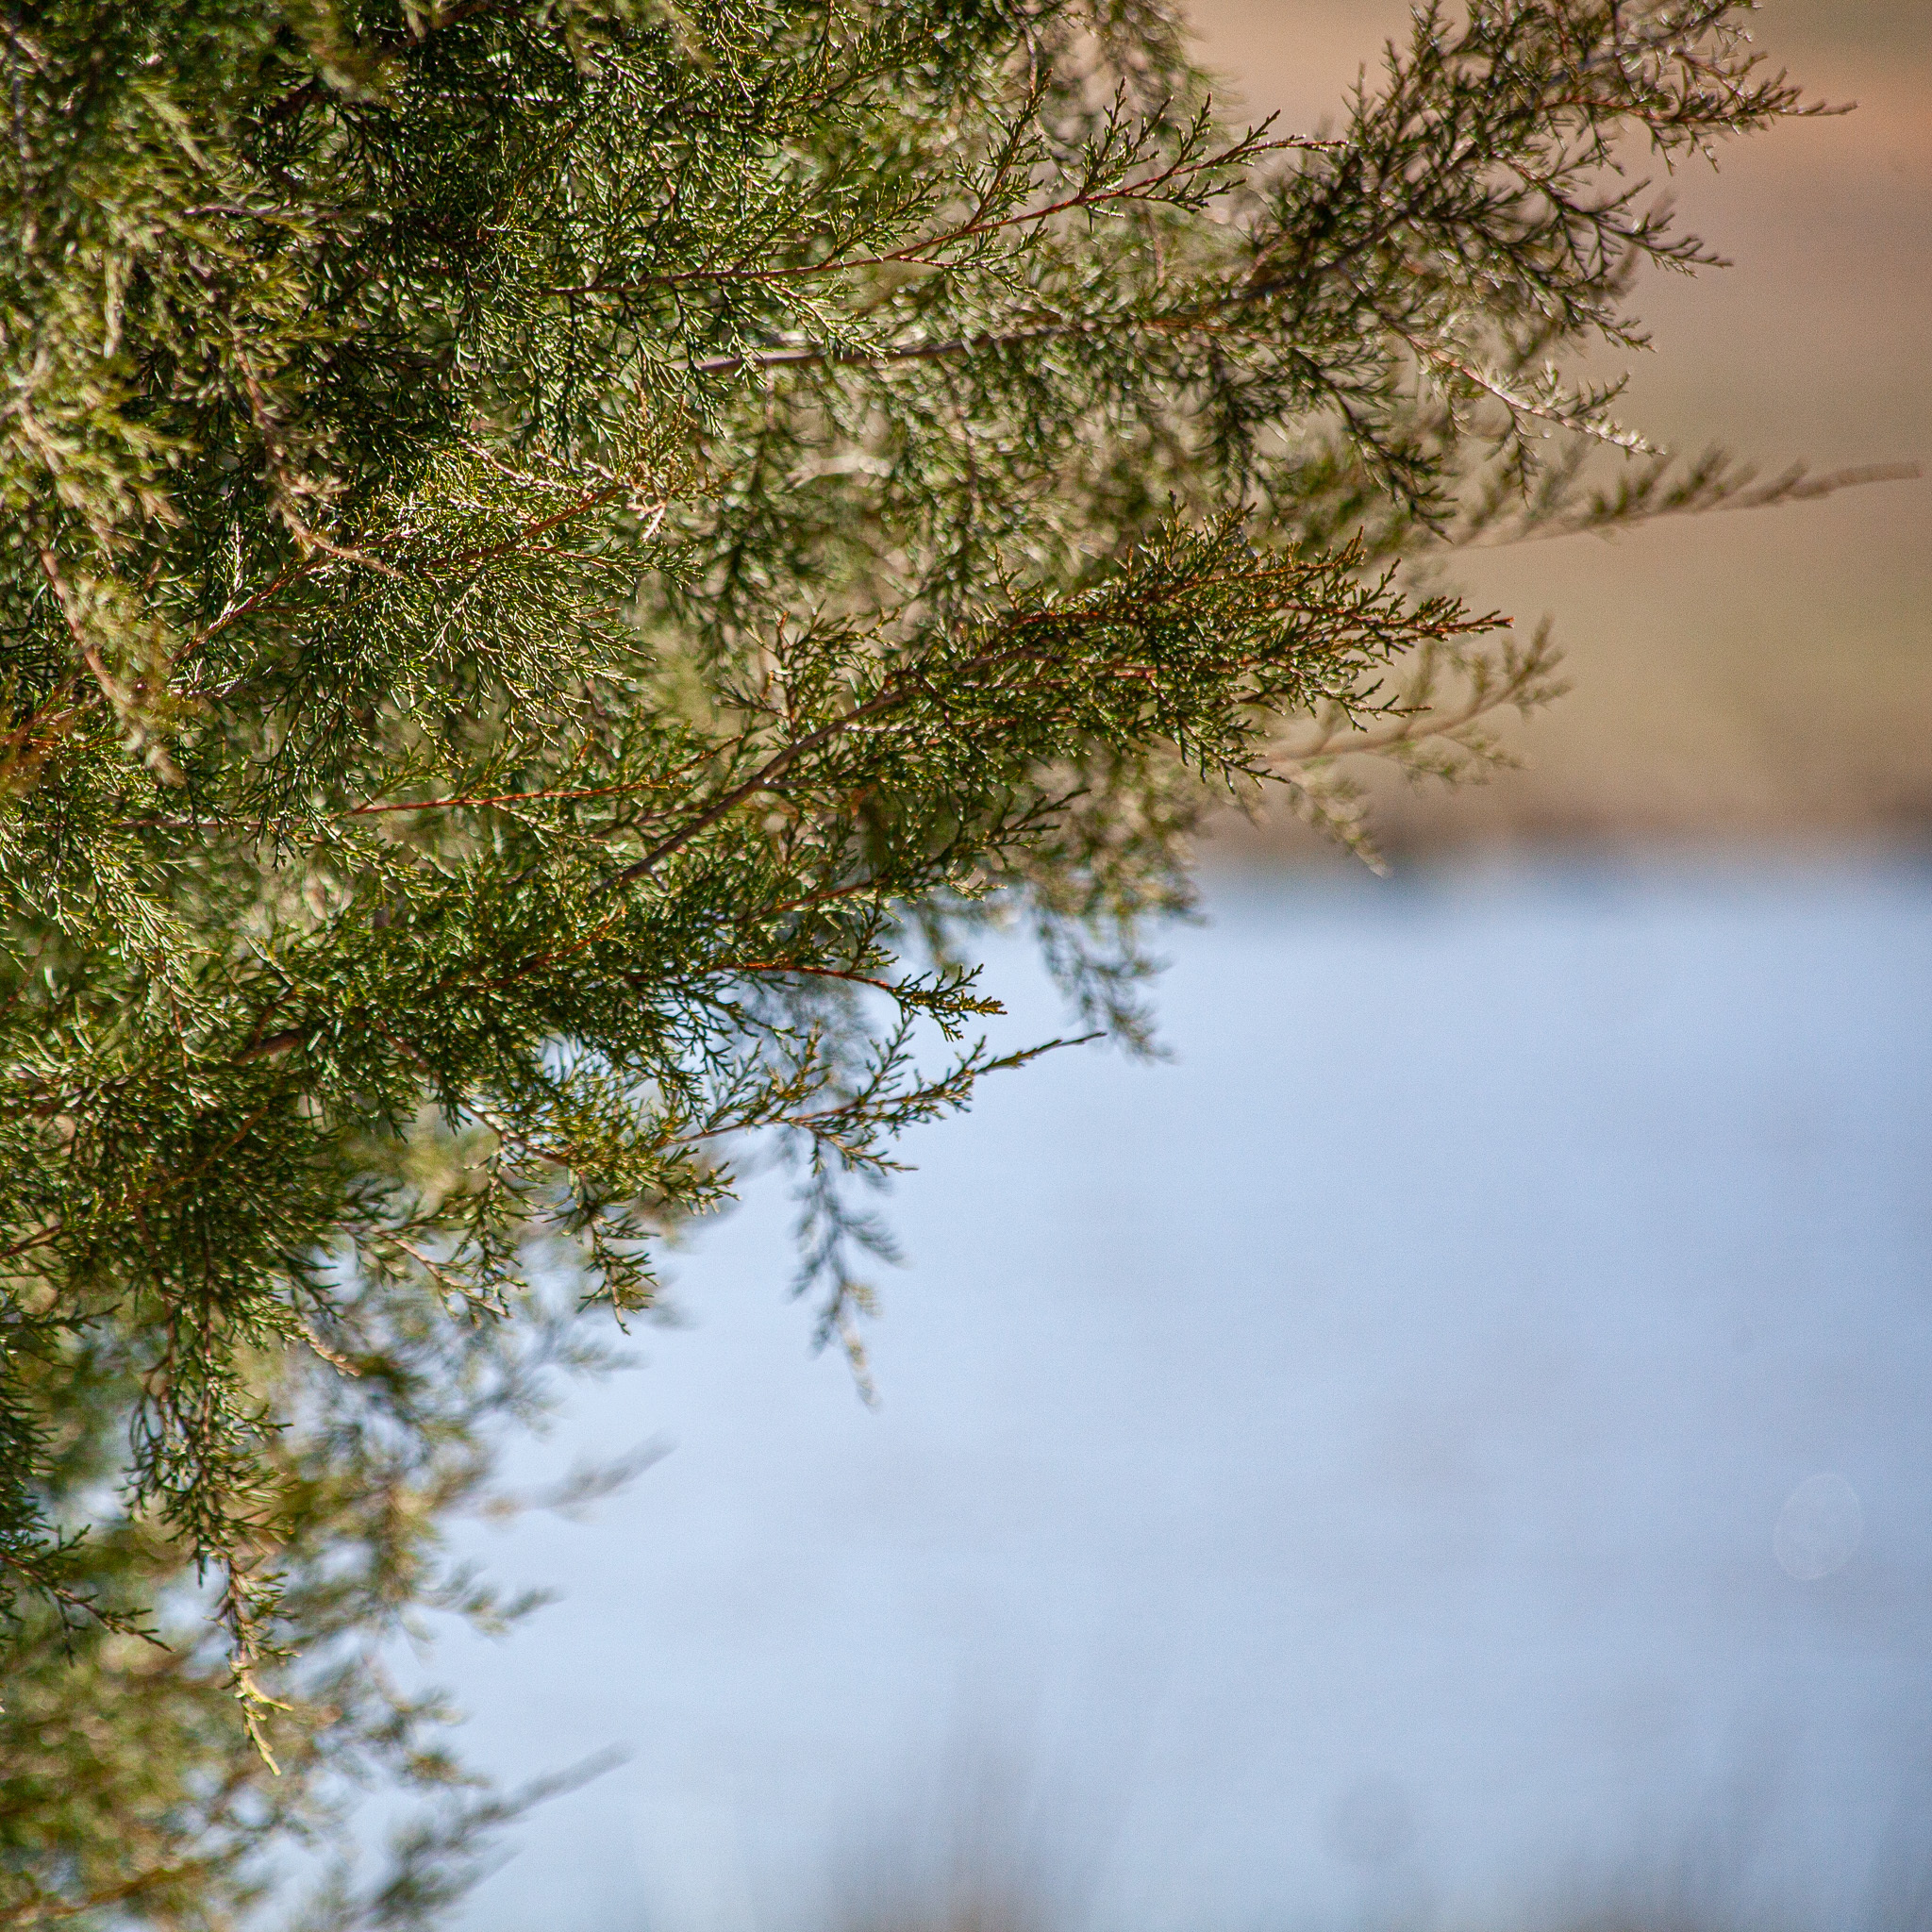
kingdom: Plantae
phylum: Tracheophyta
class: Pinopsida
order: Pinales
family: Cupressaceae
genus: Juniperus
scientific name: Juniperus virginiana
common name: Red juniper
